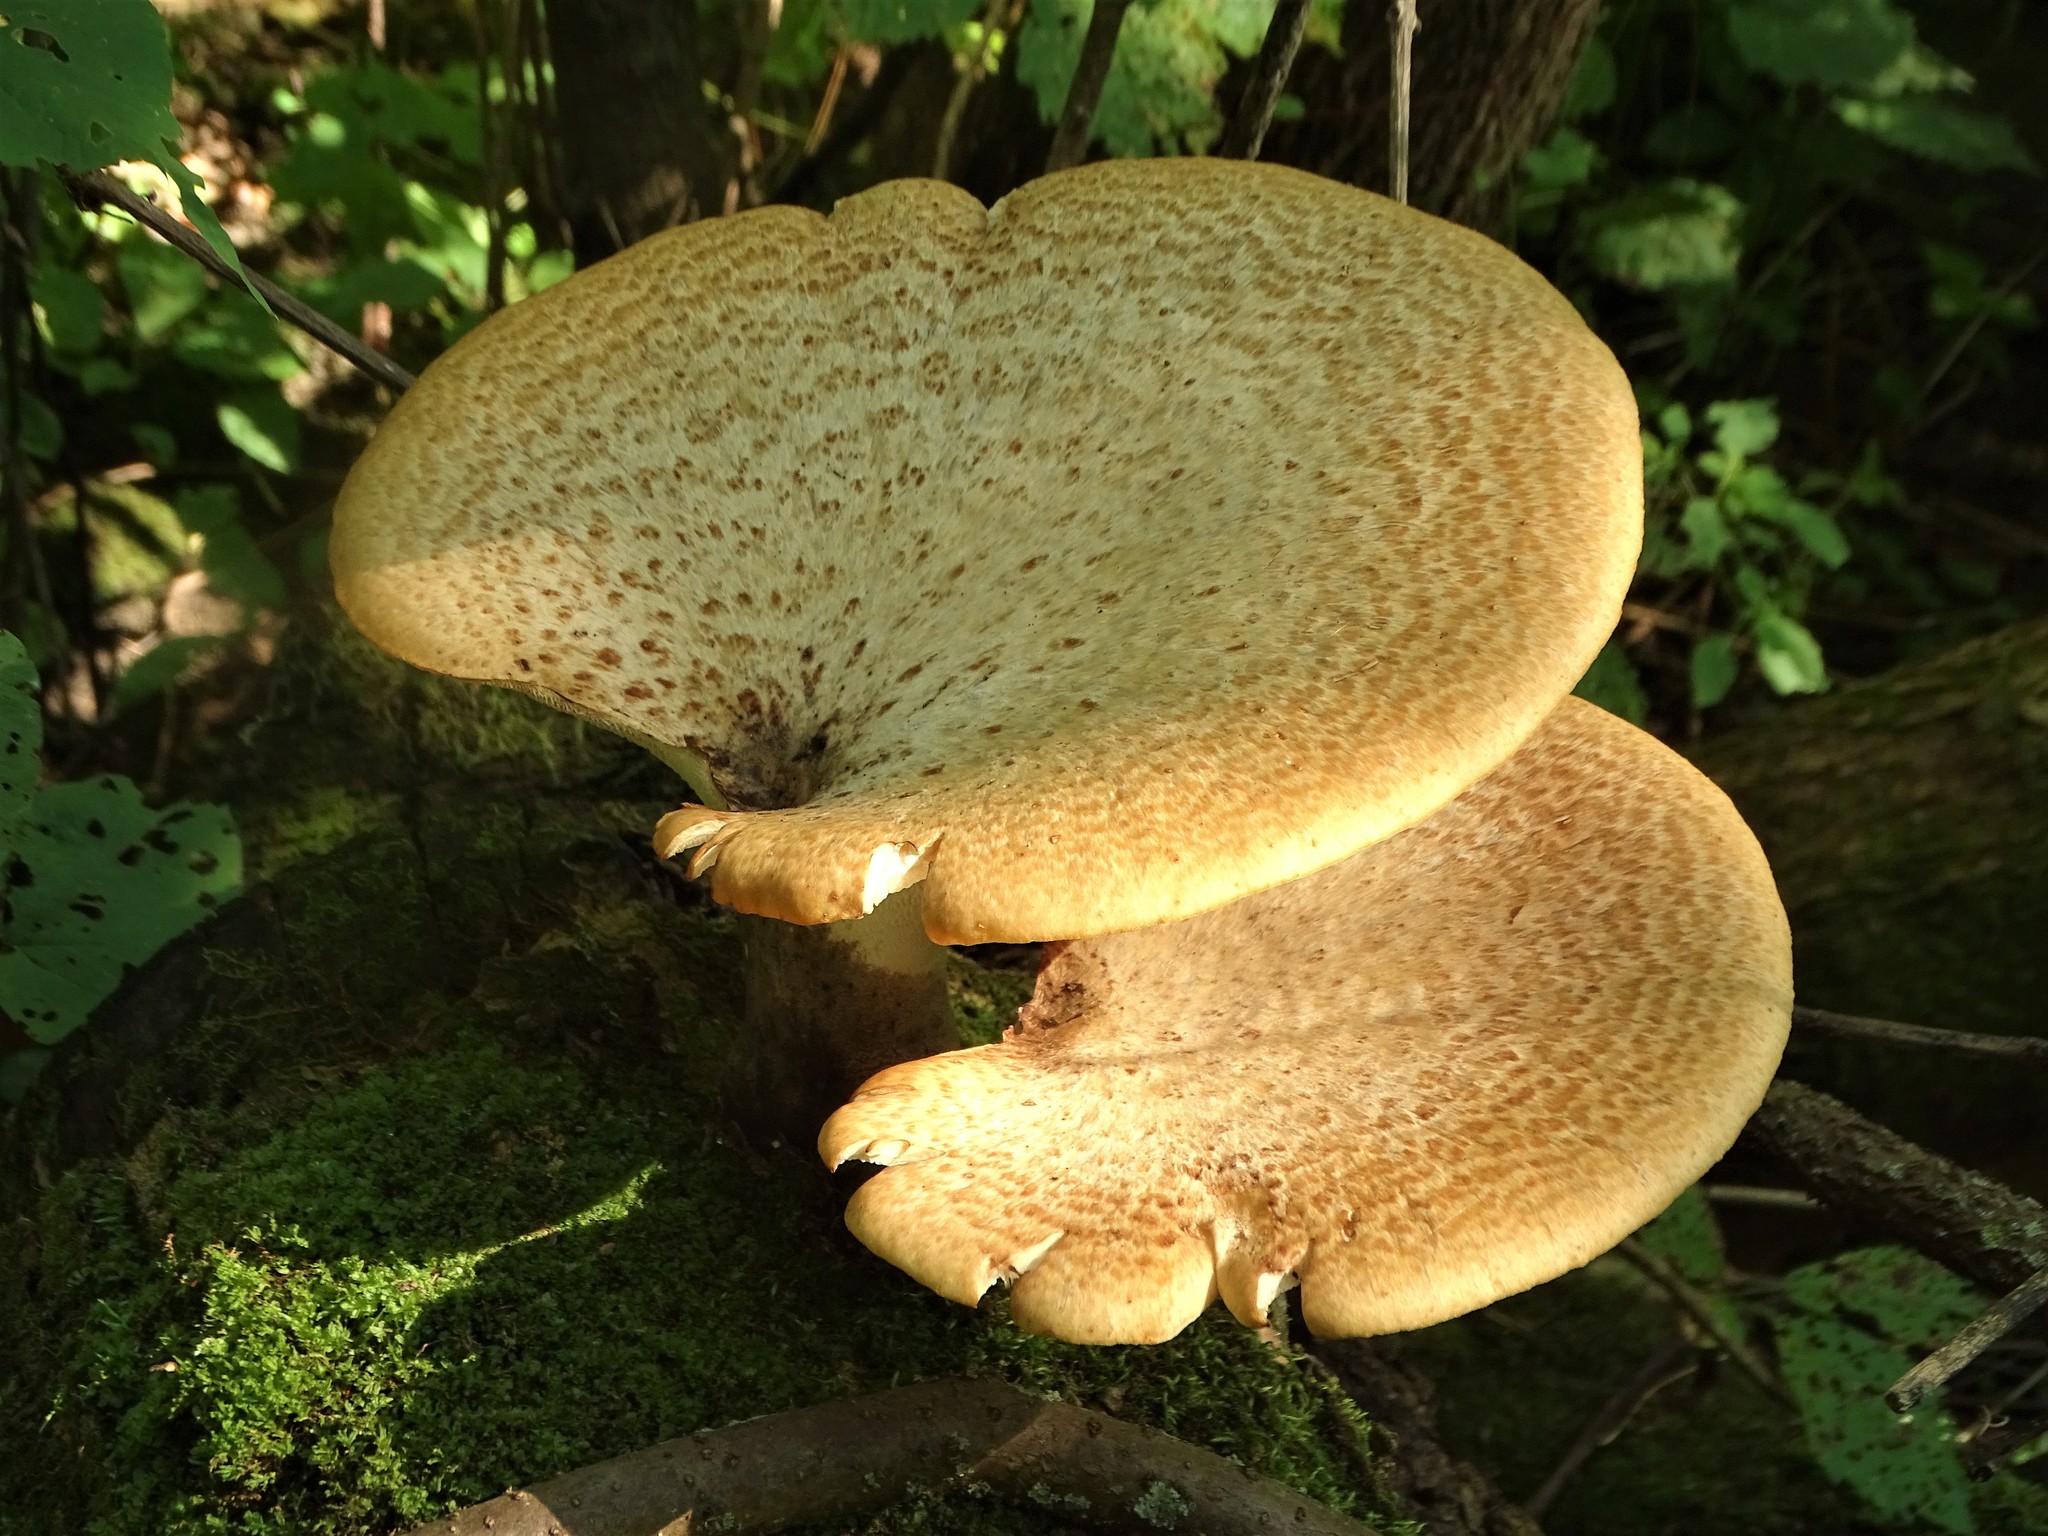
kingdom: Fungi
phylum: Basidiomycota
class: Agaricomycetes
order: Polyporales
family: Polyporaceae
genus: Cerioporus
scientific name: Cerioporus squamosus
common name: Dryad's saddle
